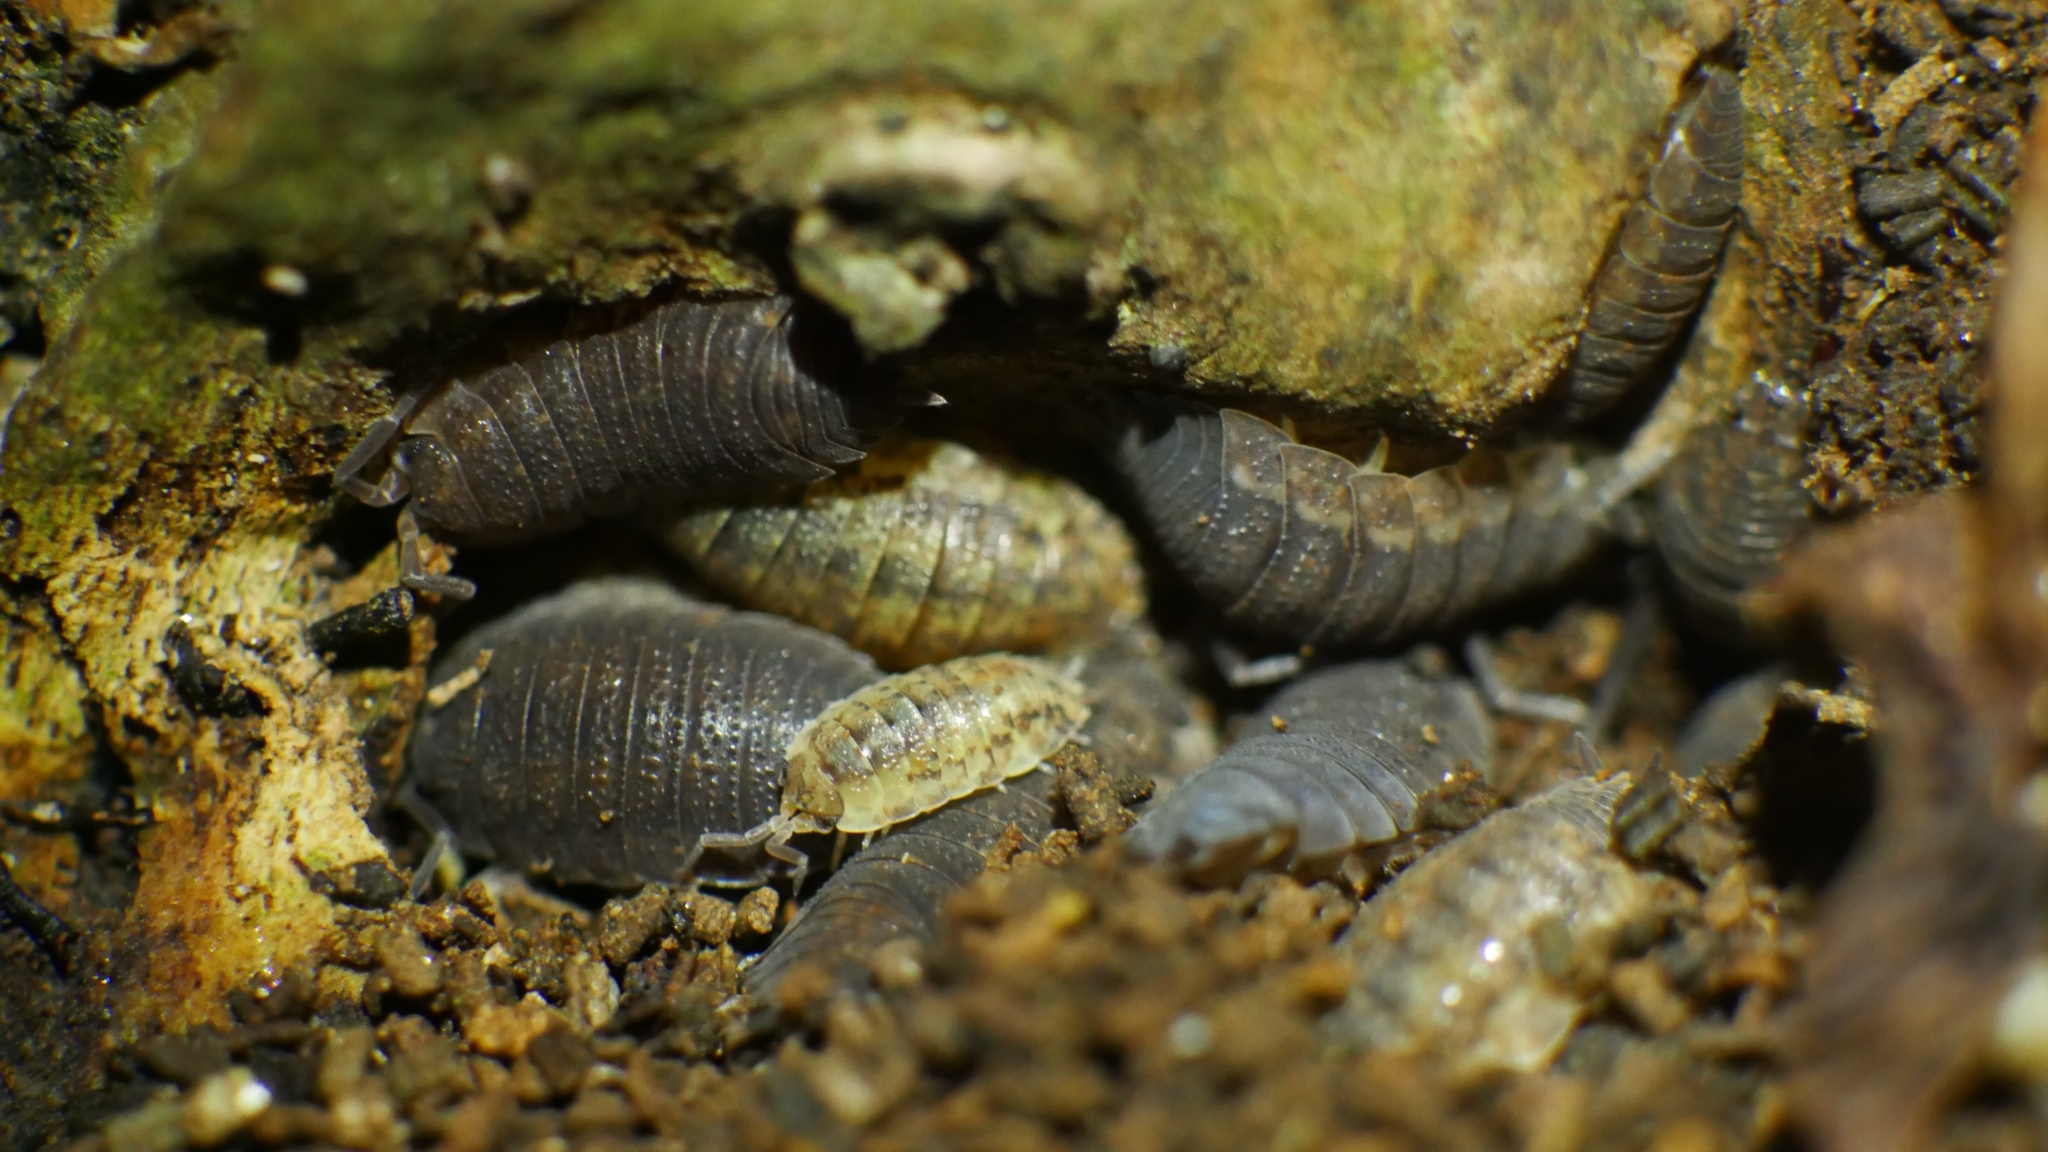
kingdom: Animalia
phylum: Arthropoda
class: Malacostraca
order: Isopoda
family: Porcellionidae
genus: Porcellio
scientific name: Porcellio scaber
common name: Common rough woodlouse
